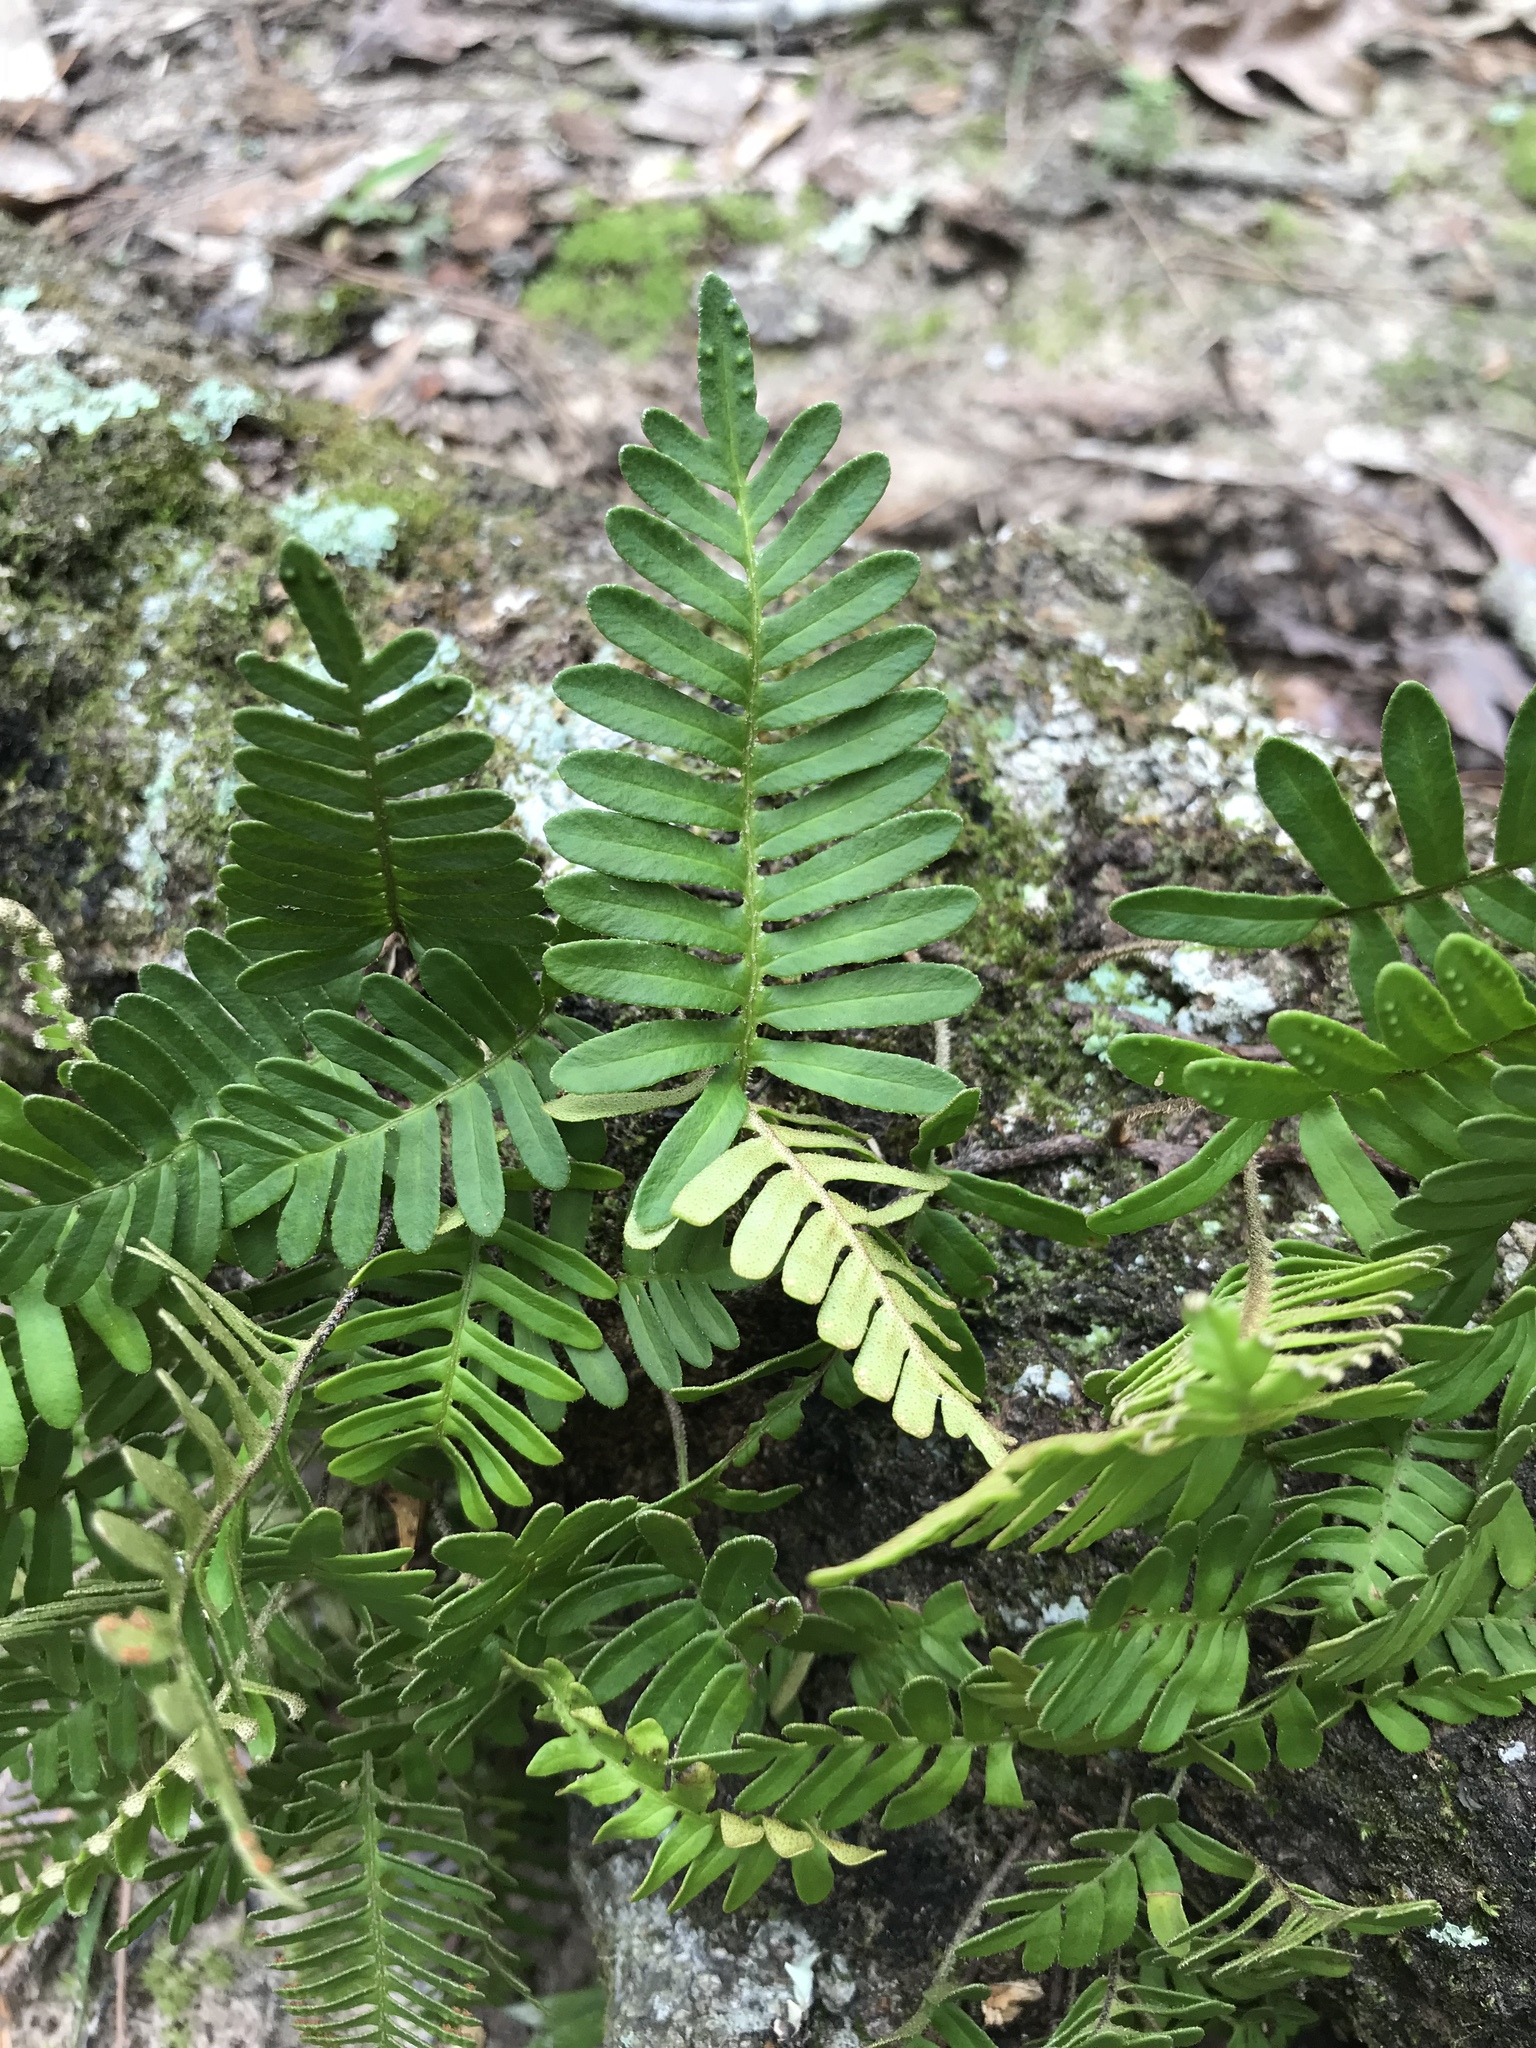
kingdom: Plantae
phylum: Tracheophyta
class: Polypodiopsida
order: Polypodiales
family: Polypodiaceae
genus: Pleopeltis
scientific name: Pleopeltis michauxiana
